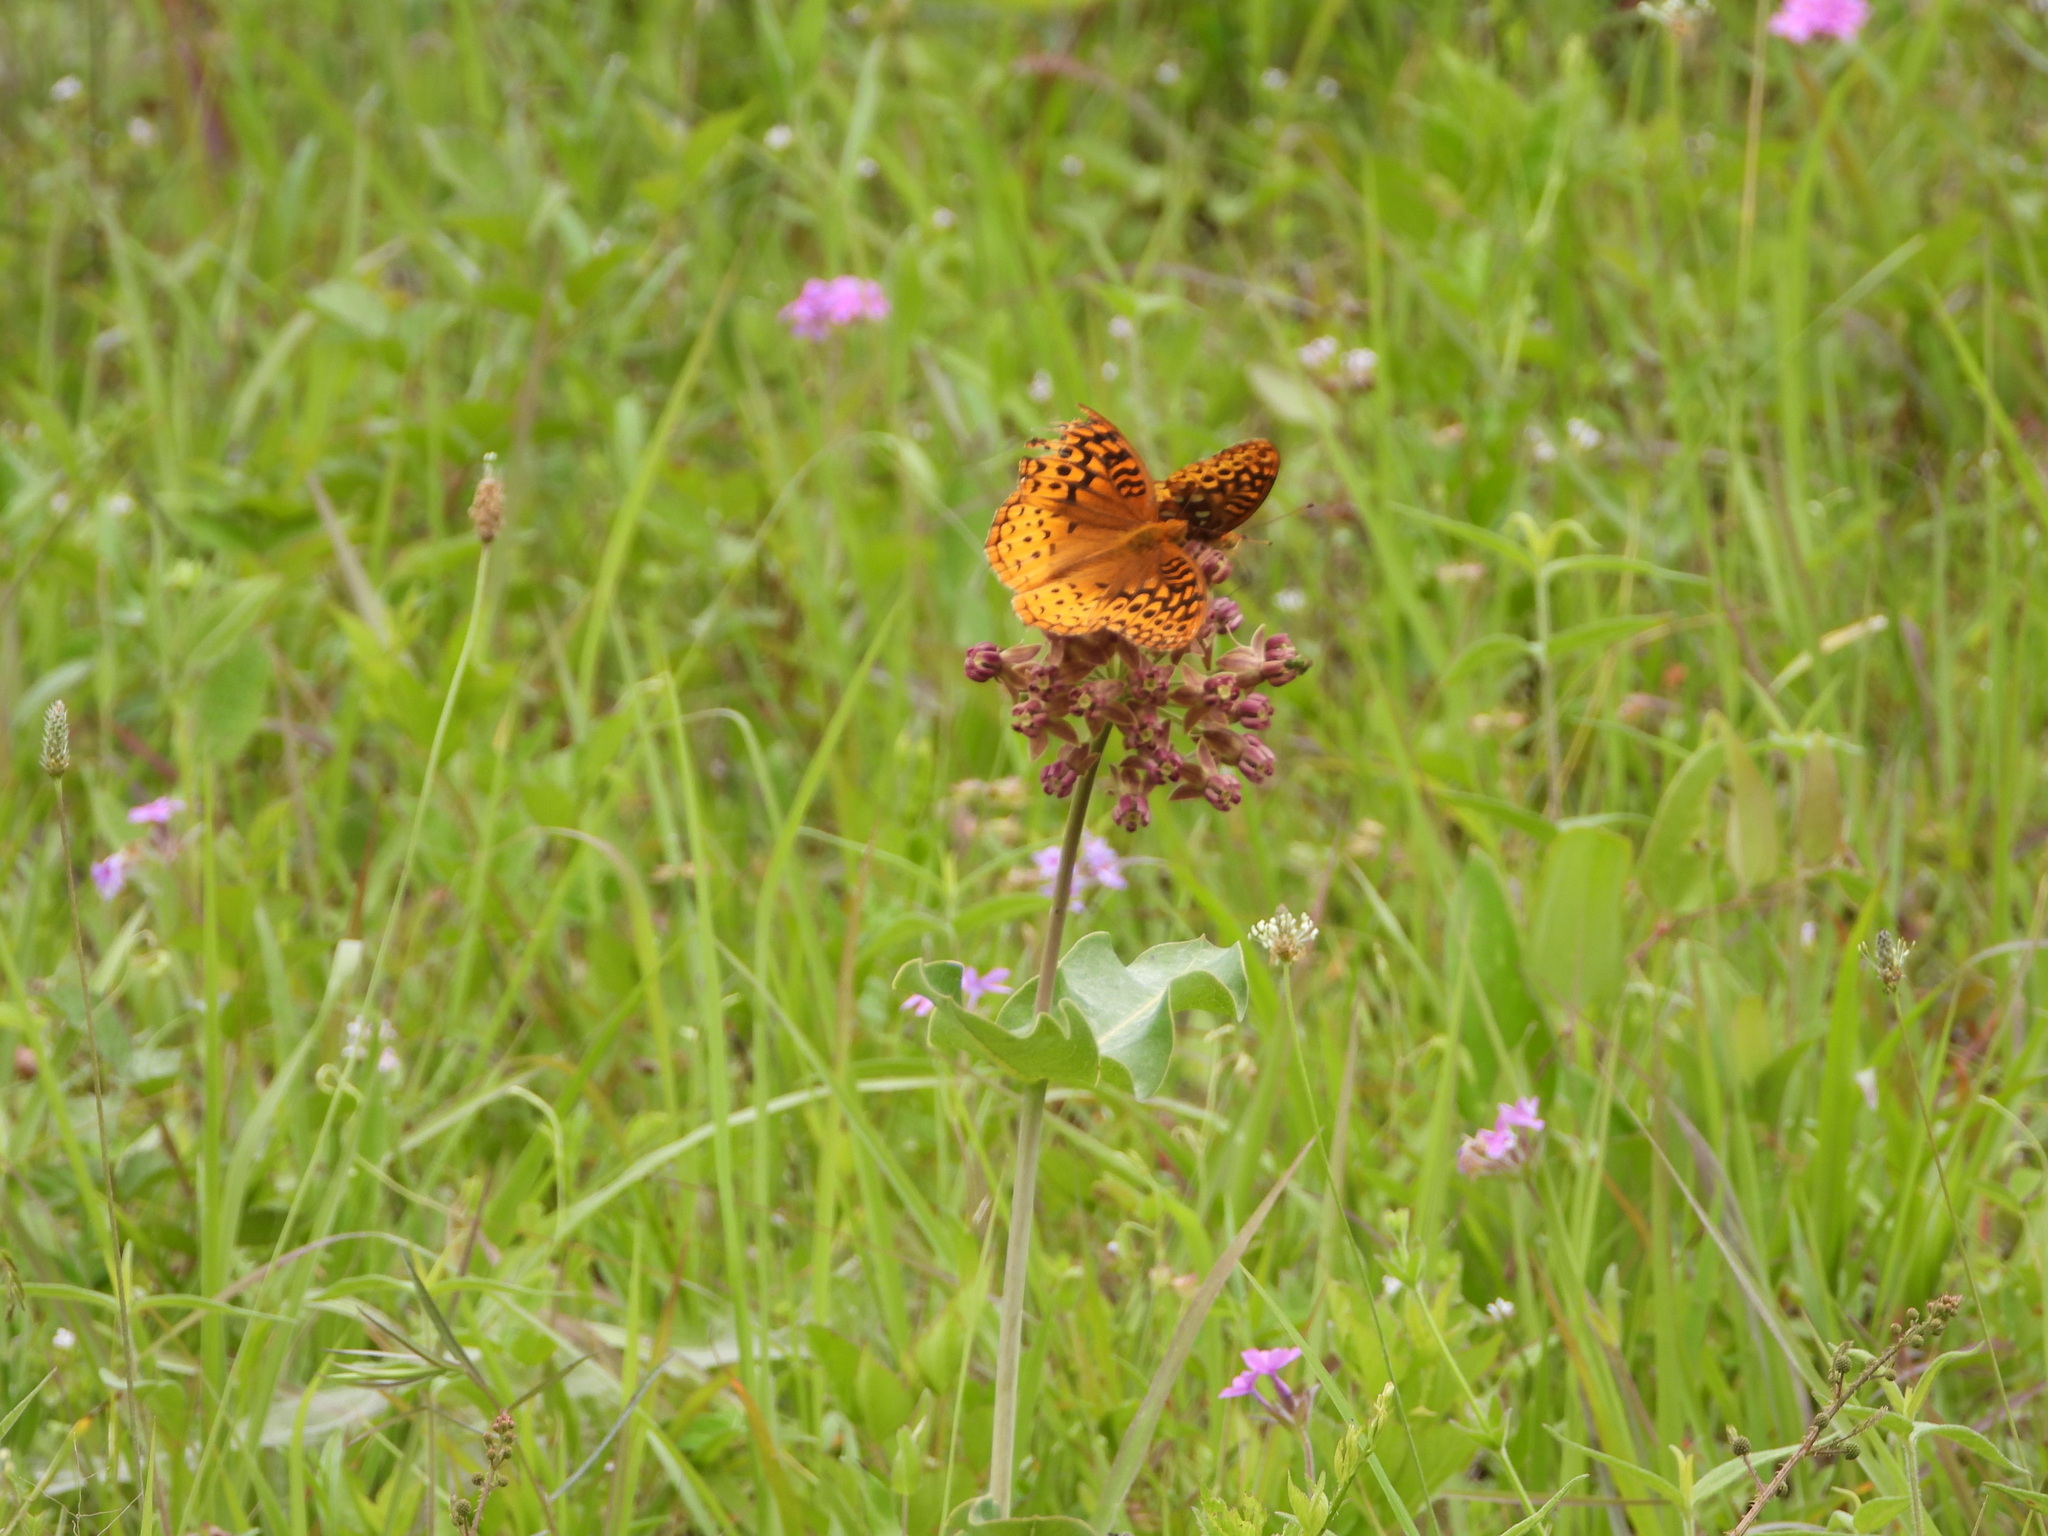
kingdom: Animalia
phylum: Arthropoda
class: Insecta
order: Lepidoptera
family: Nymphalidae
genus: Speyeria
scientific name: Speyeria cybele
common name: Great spangled fritillary
